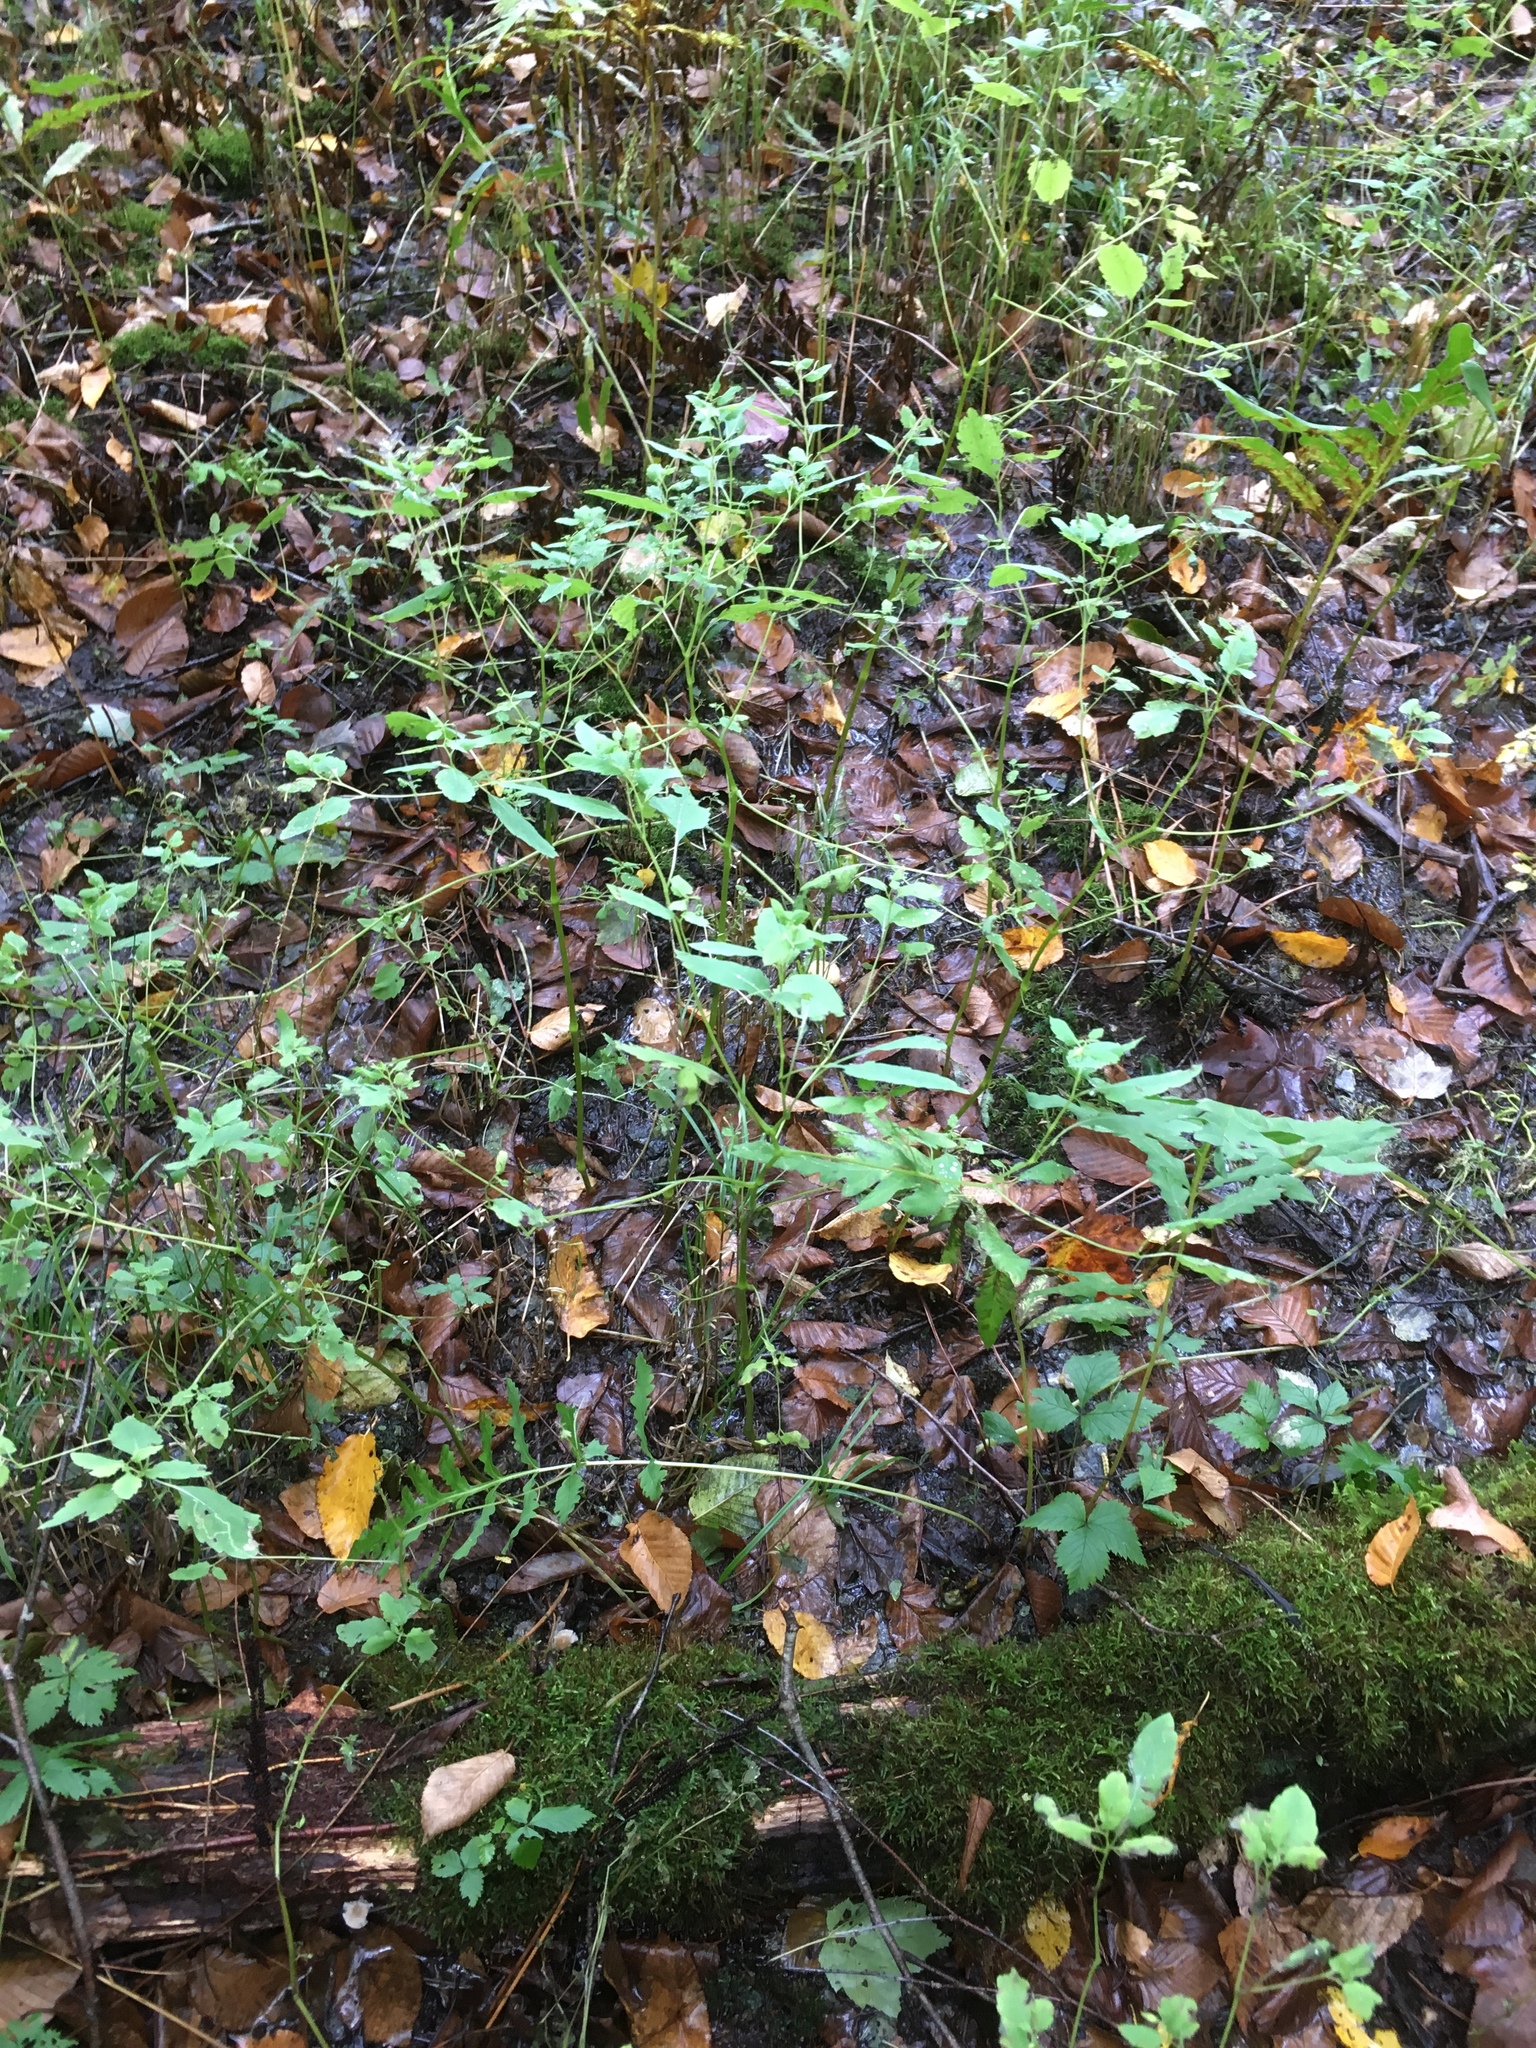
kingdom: Plantae
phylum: Tracheophyta
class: Magnoliopsida
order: Ericales
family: Balsaminaceae
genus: Impatiens
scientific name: Impatiens capensis
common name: Orange balsam
